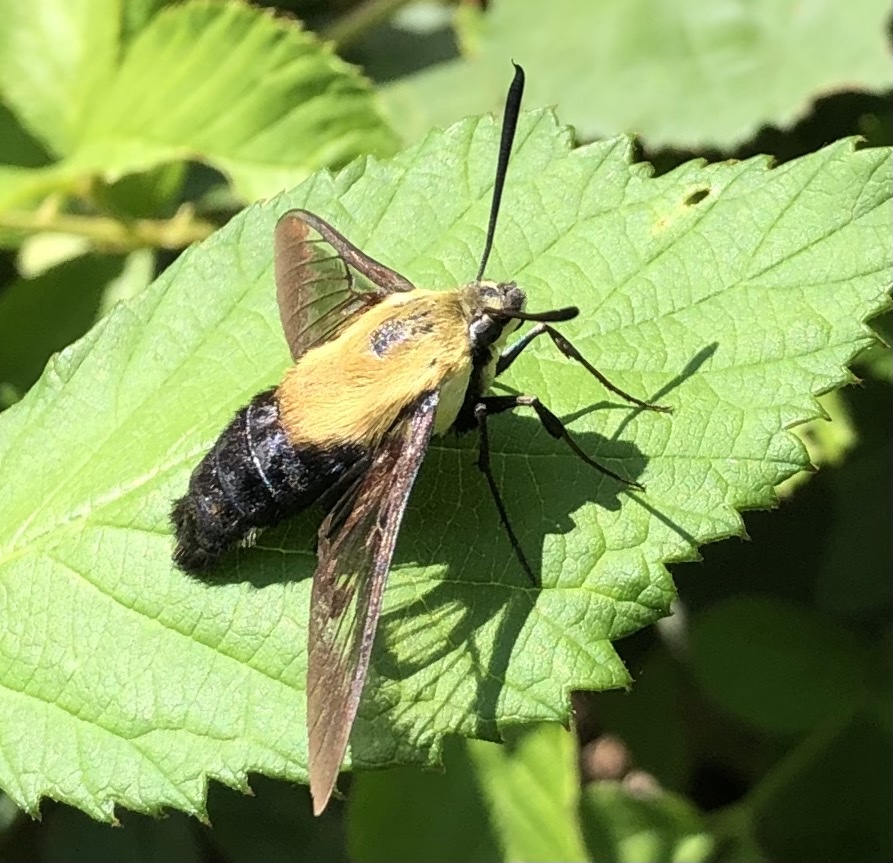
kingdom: Animalia
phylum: Arthropoda
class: Insecta
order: Lepidoptera
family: Sphingidae
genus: Hemaris
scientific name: Hemaris diffinis
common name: Bumblebee moth
